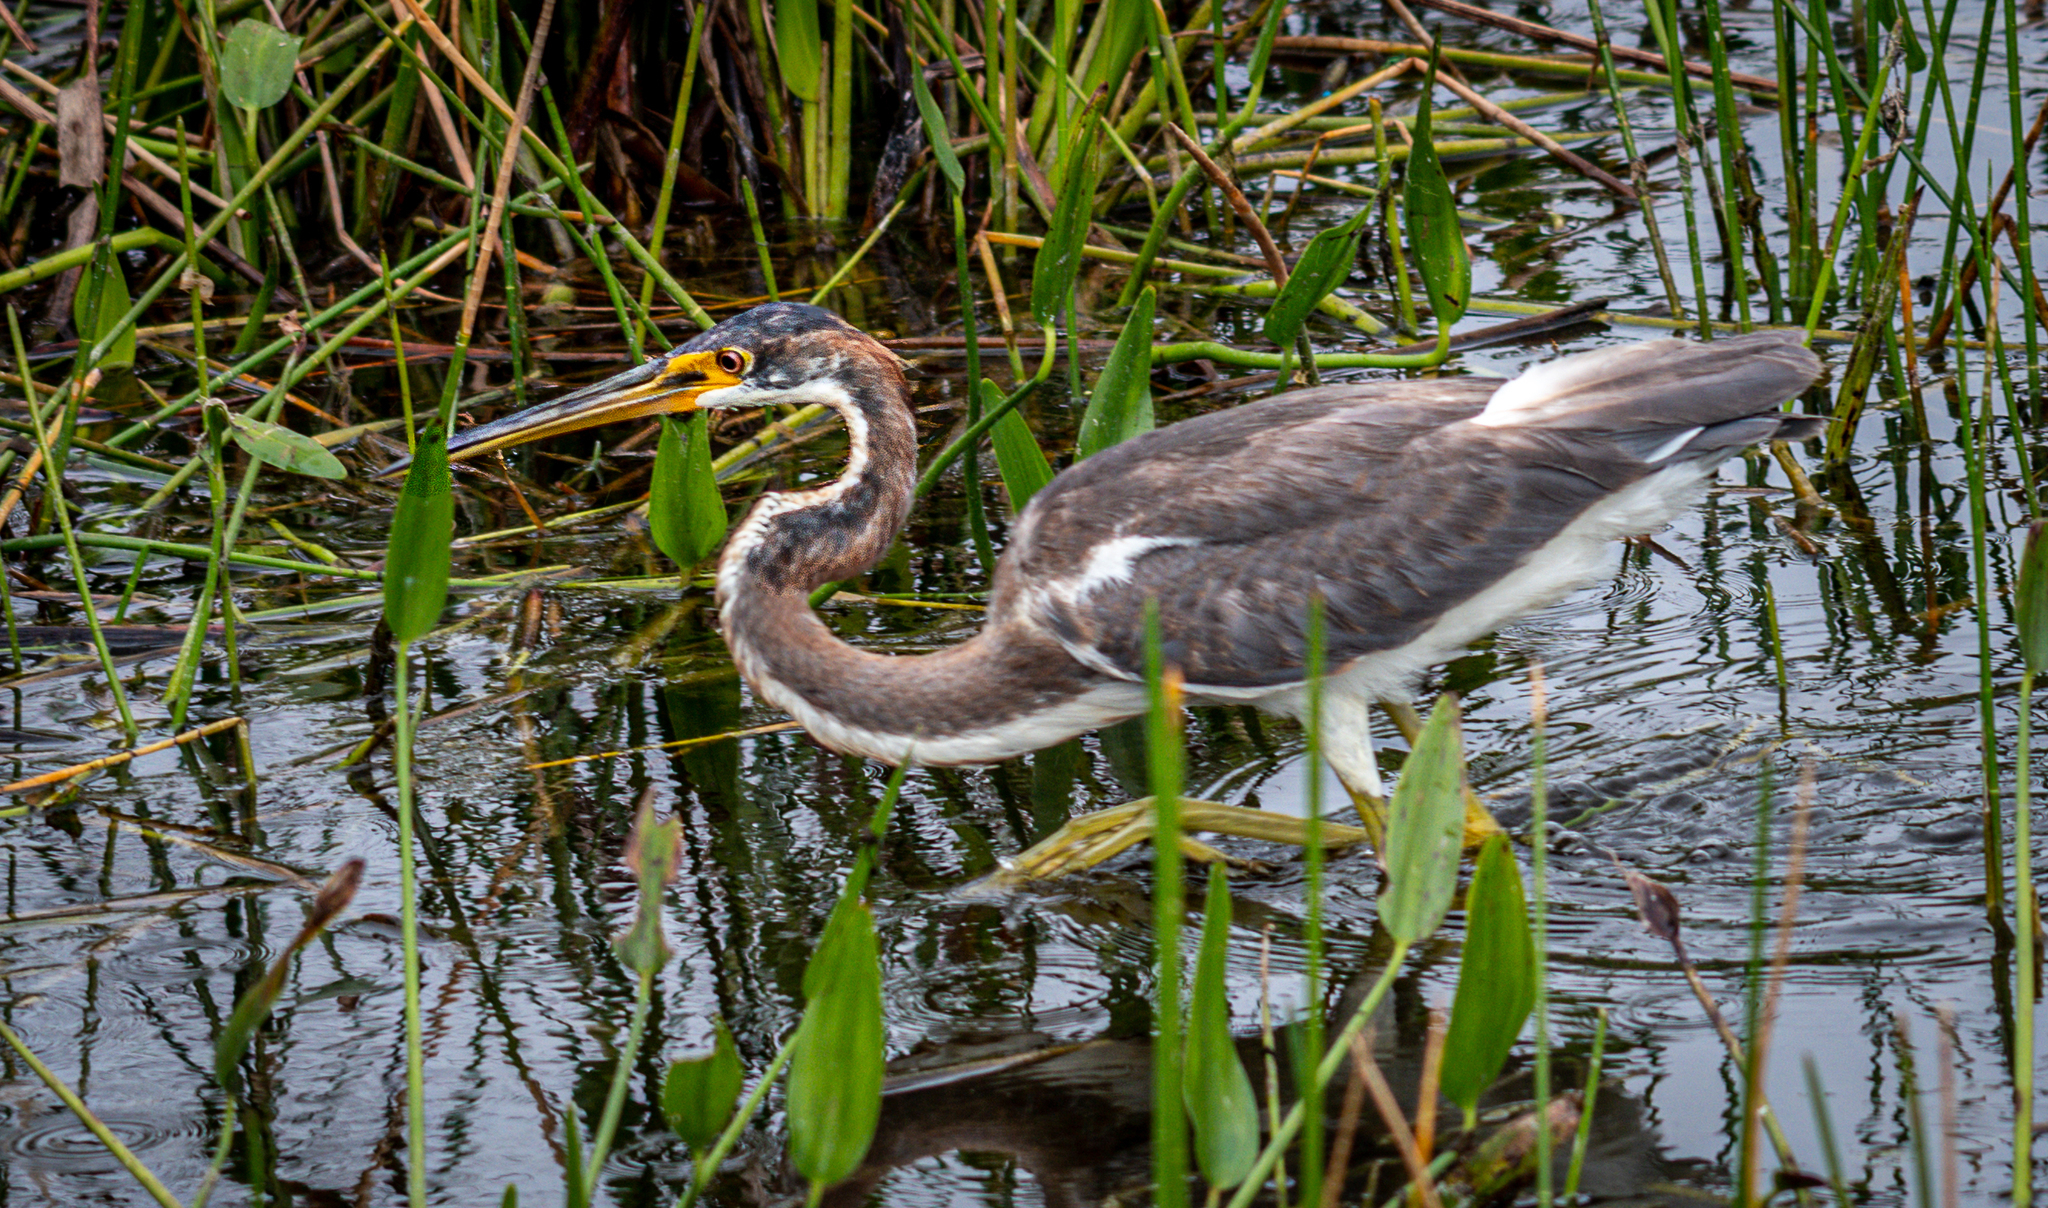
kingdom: Animalia
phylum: Chordata
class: Aves
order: Pelecaniformes
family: Ardeidae
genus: Egretta
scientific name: Egretta tricolor
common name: Tricolored heron
